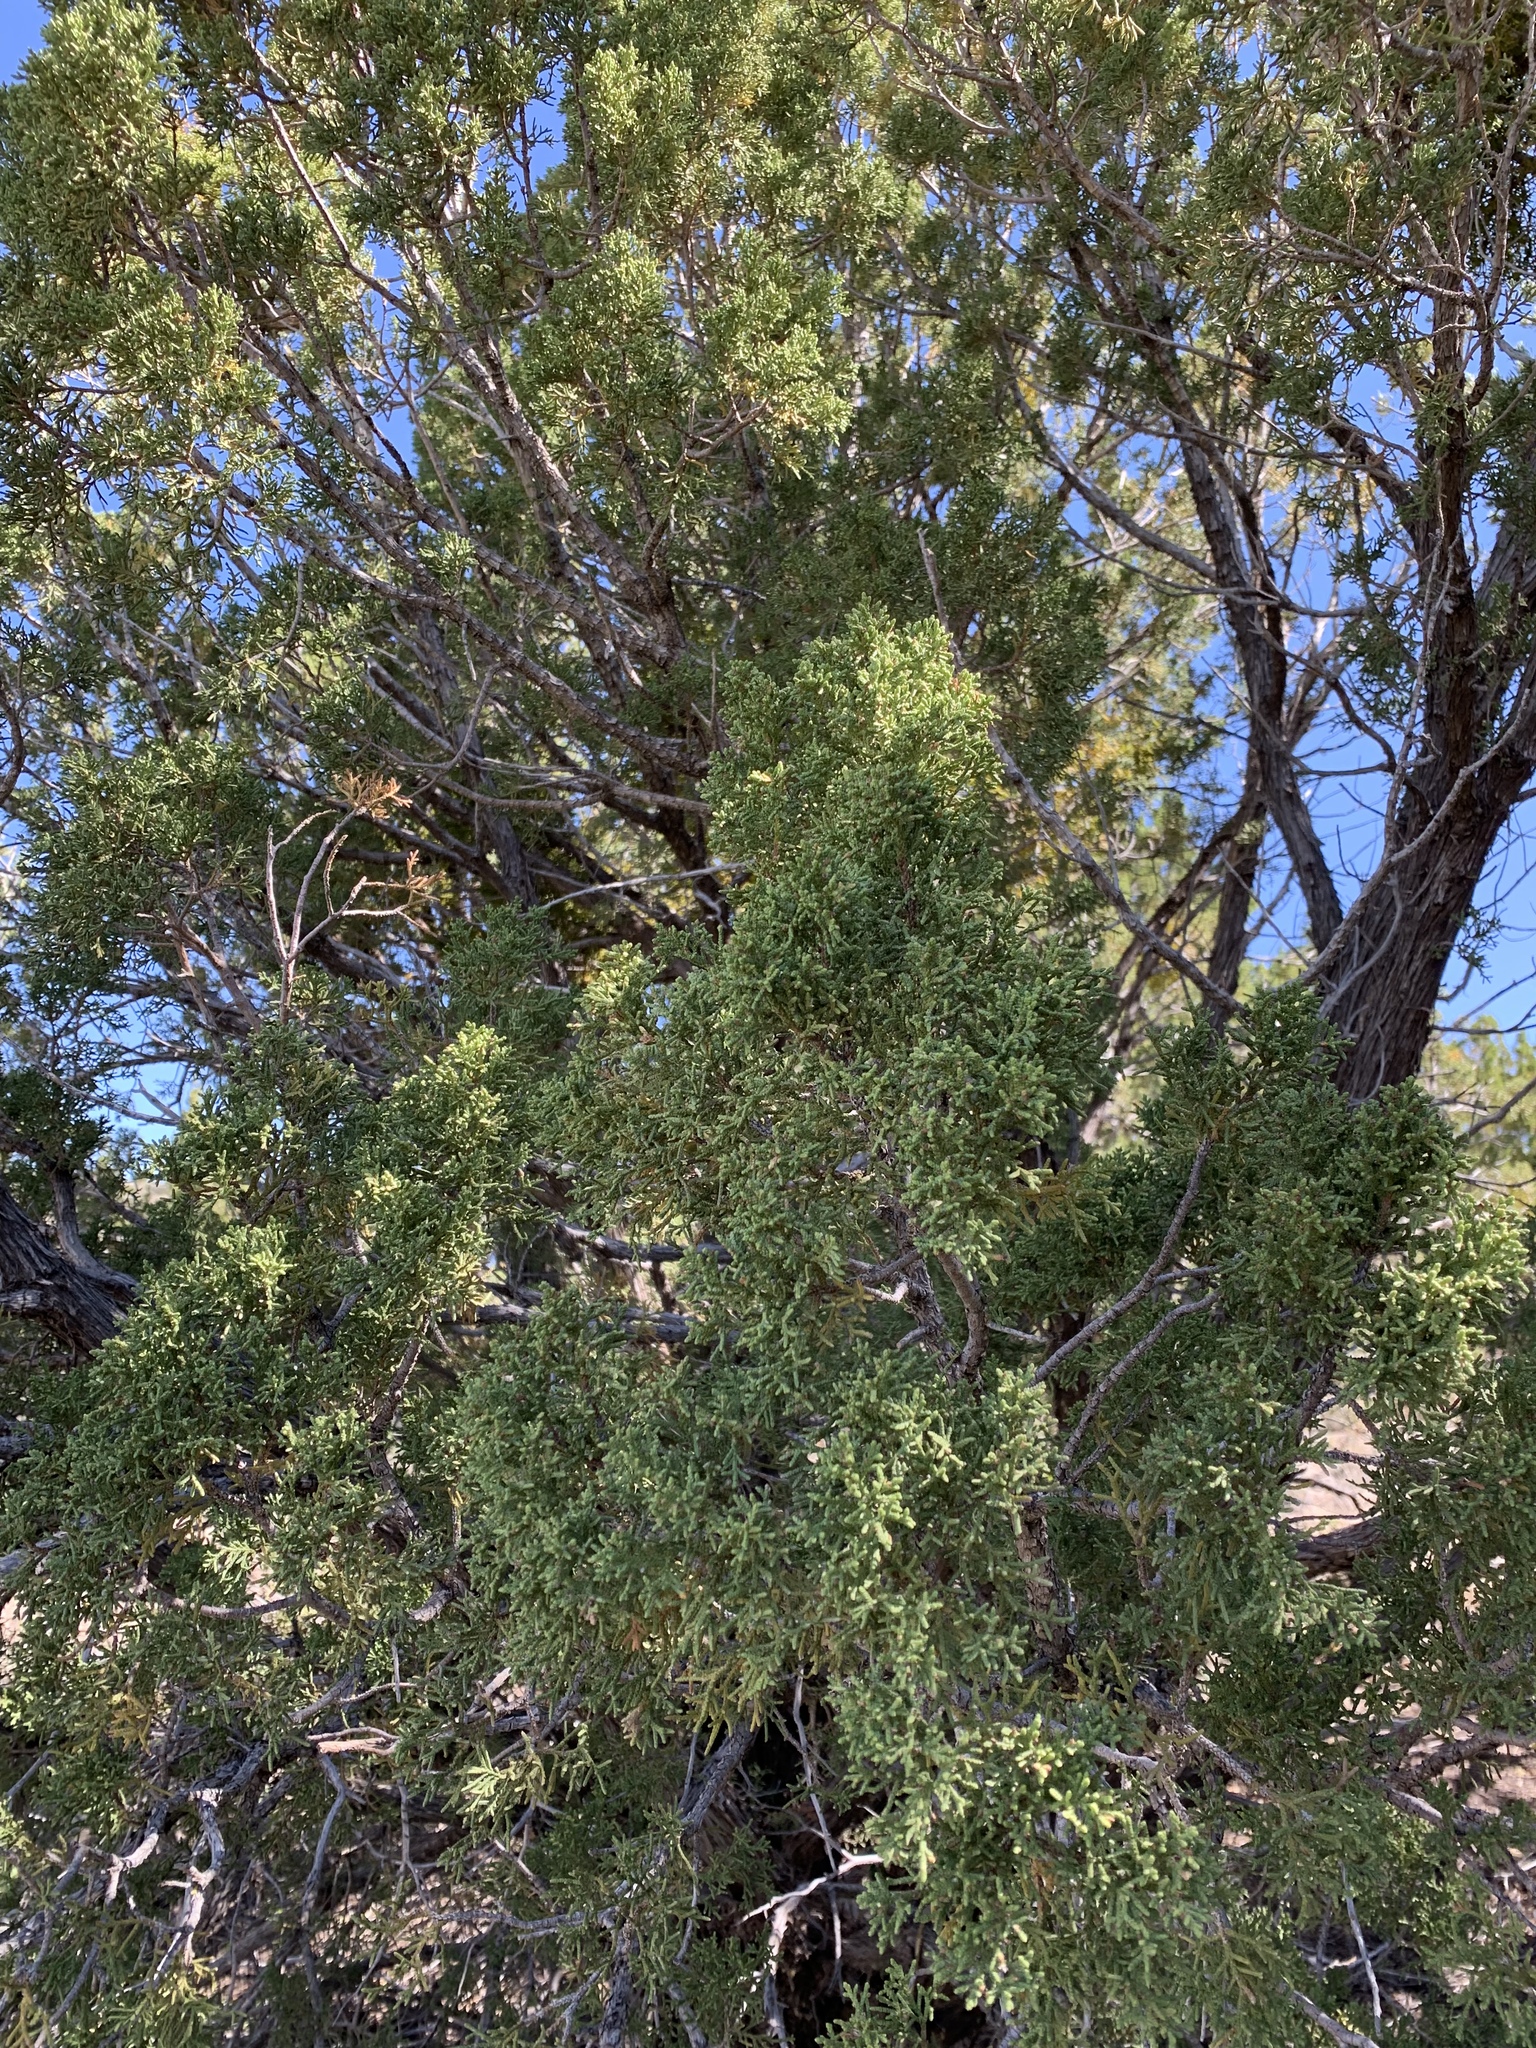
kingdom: Plantae
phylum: Tracheophyta
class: Pinopsida
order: Pinales
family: Cupressaceae
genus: Juniperus
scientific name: Juniperus monosperma
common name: One-seed juniper
